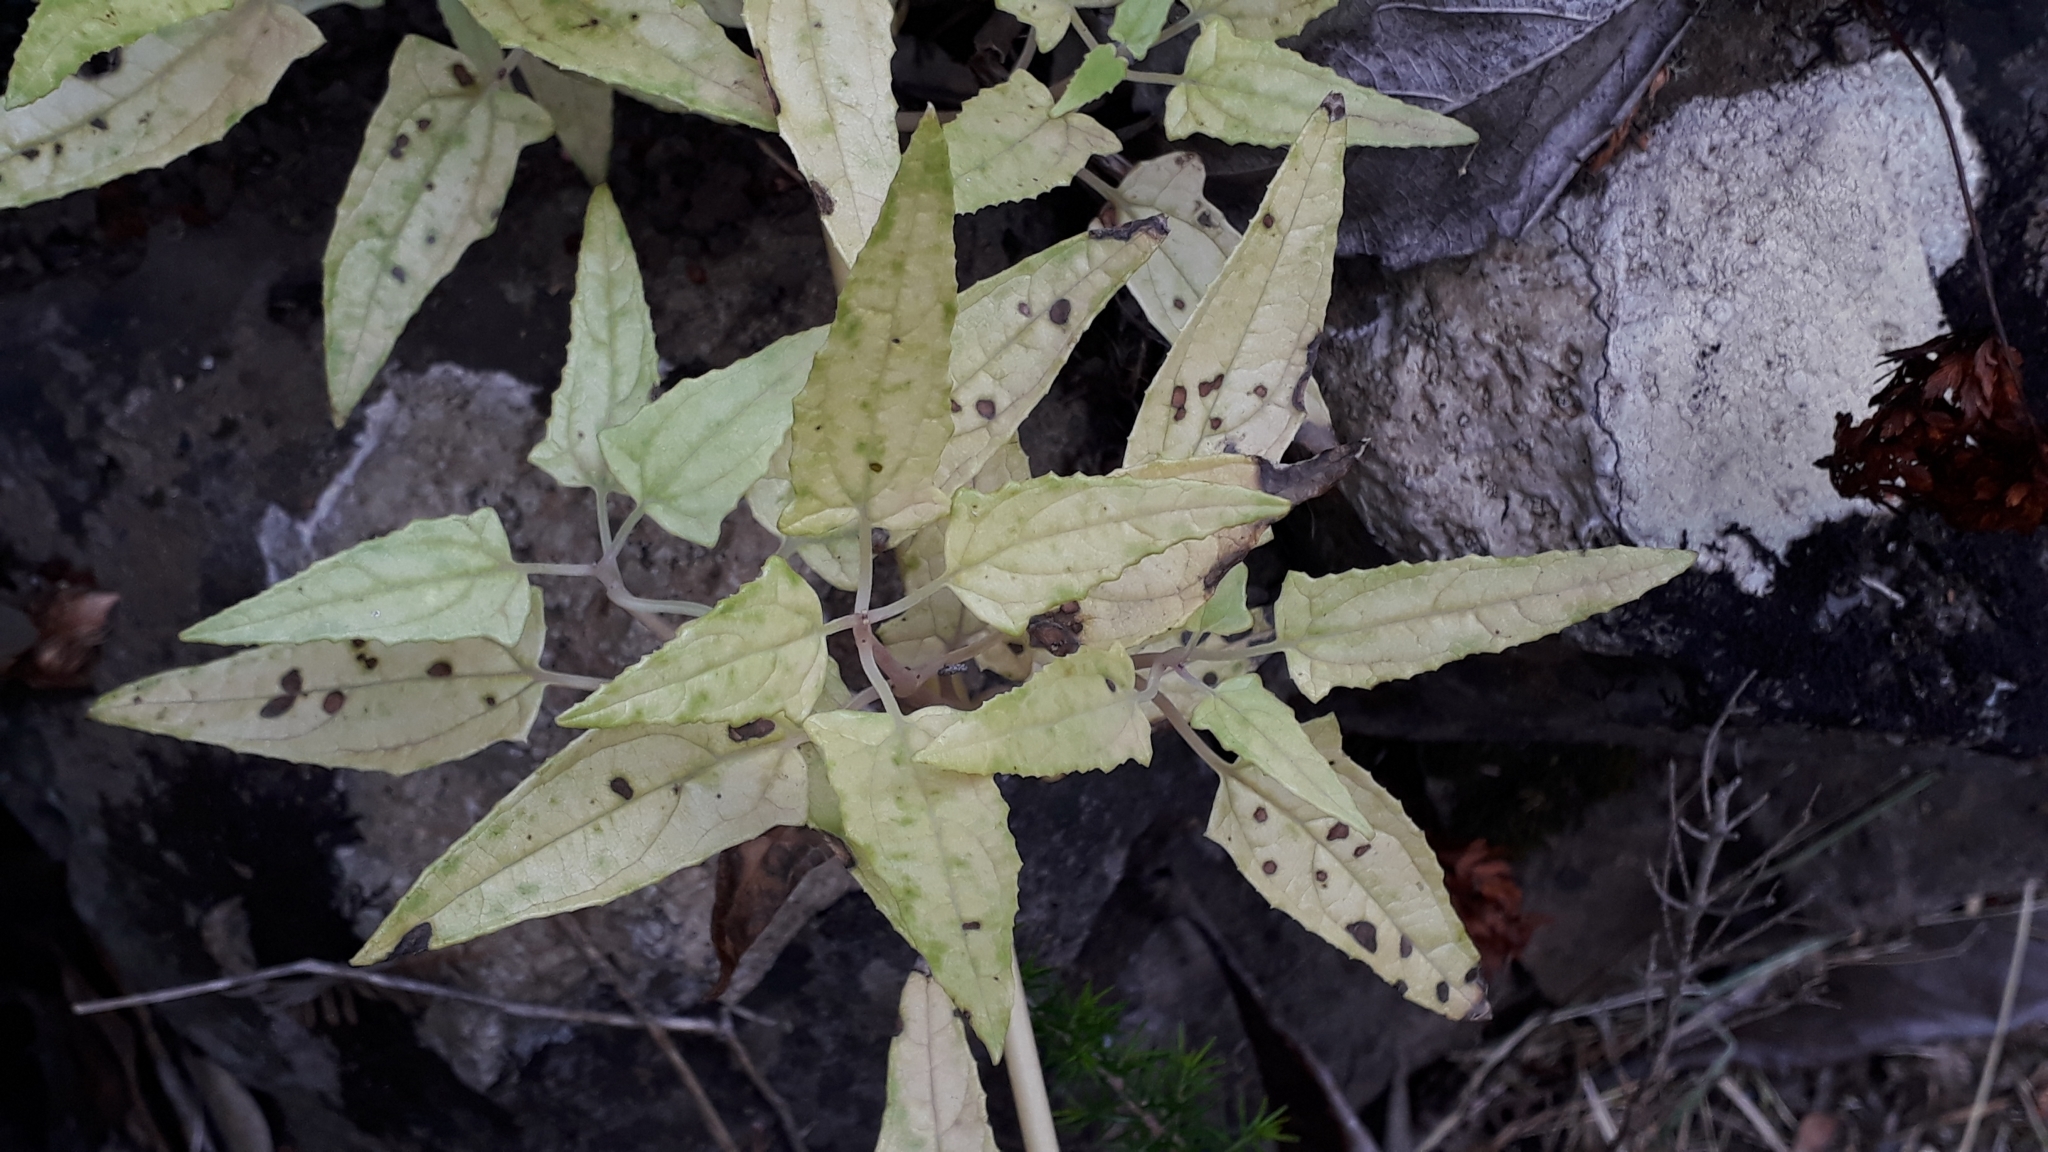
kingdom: Plantae
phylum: Tracheophyta
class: Magnoliopsida
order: Asterales
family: Campanulaceae
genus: Canarina
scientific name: Canarina canariensis
